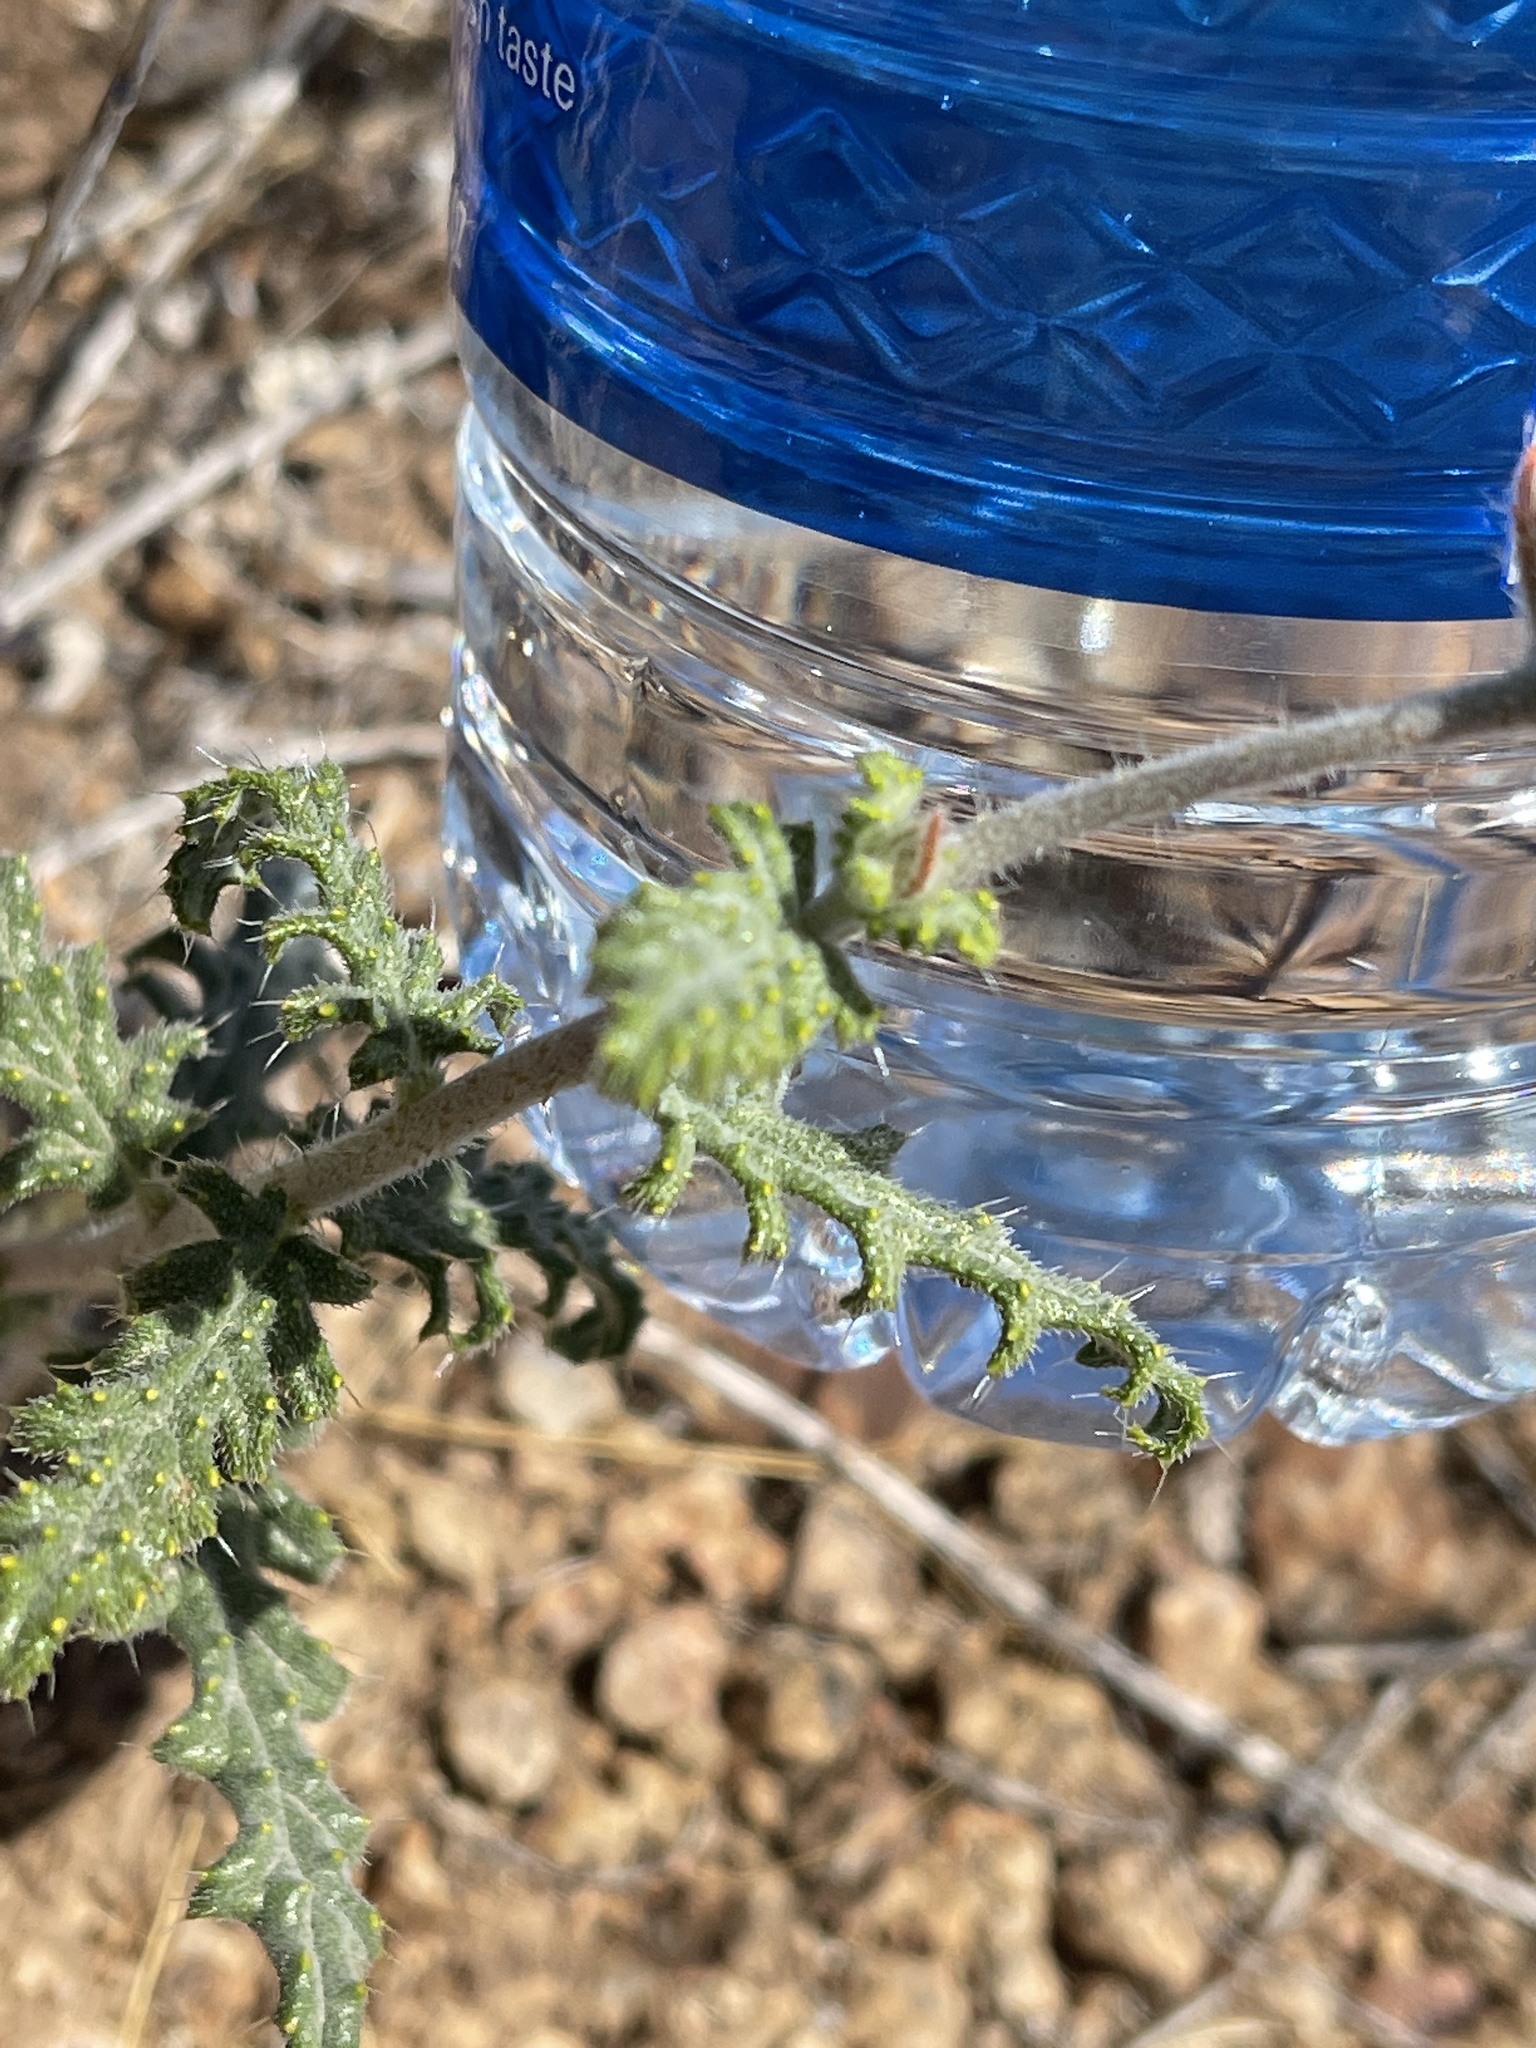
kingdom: Plantae
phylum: Tracheophyta
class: Magnoliopsida
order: Cornales
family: Loasaceae
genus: Cevallia
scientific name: Cevallia sinuata
